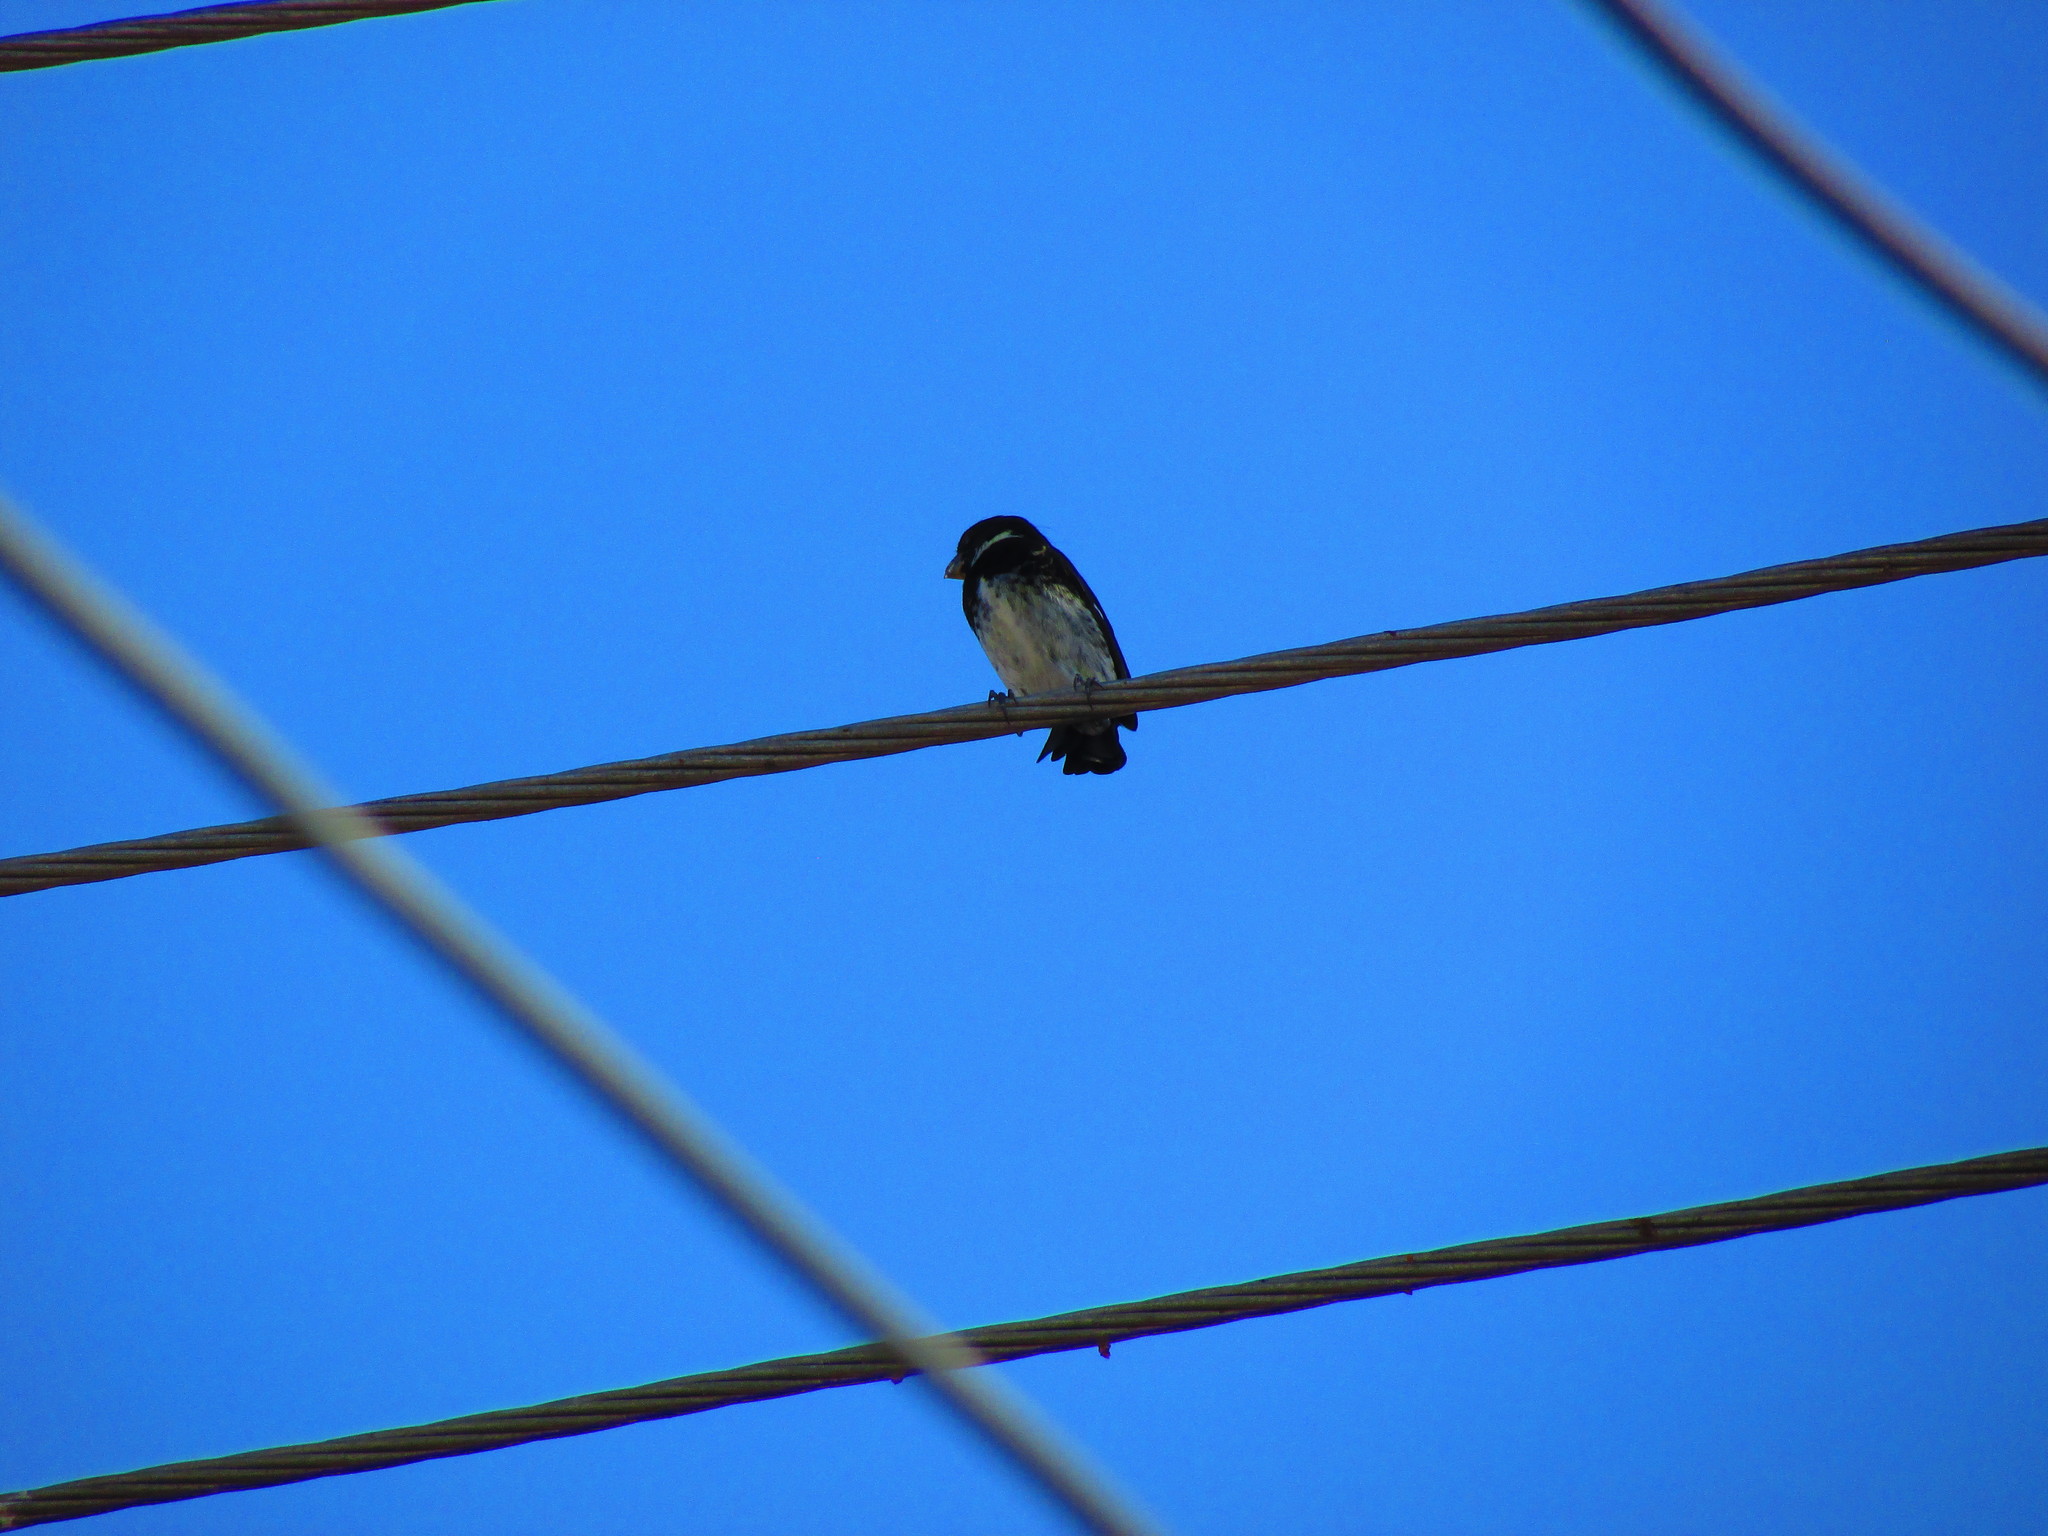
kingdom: Animalia
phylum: Chordata
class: Aves
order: Passeriformes
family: Thraupidae
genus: Sporophila
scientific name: Sporophila corvina
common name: Variable seedeater
